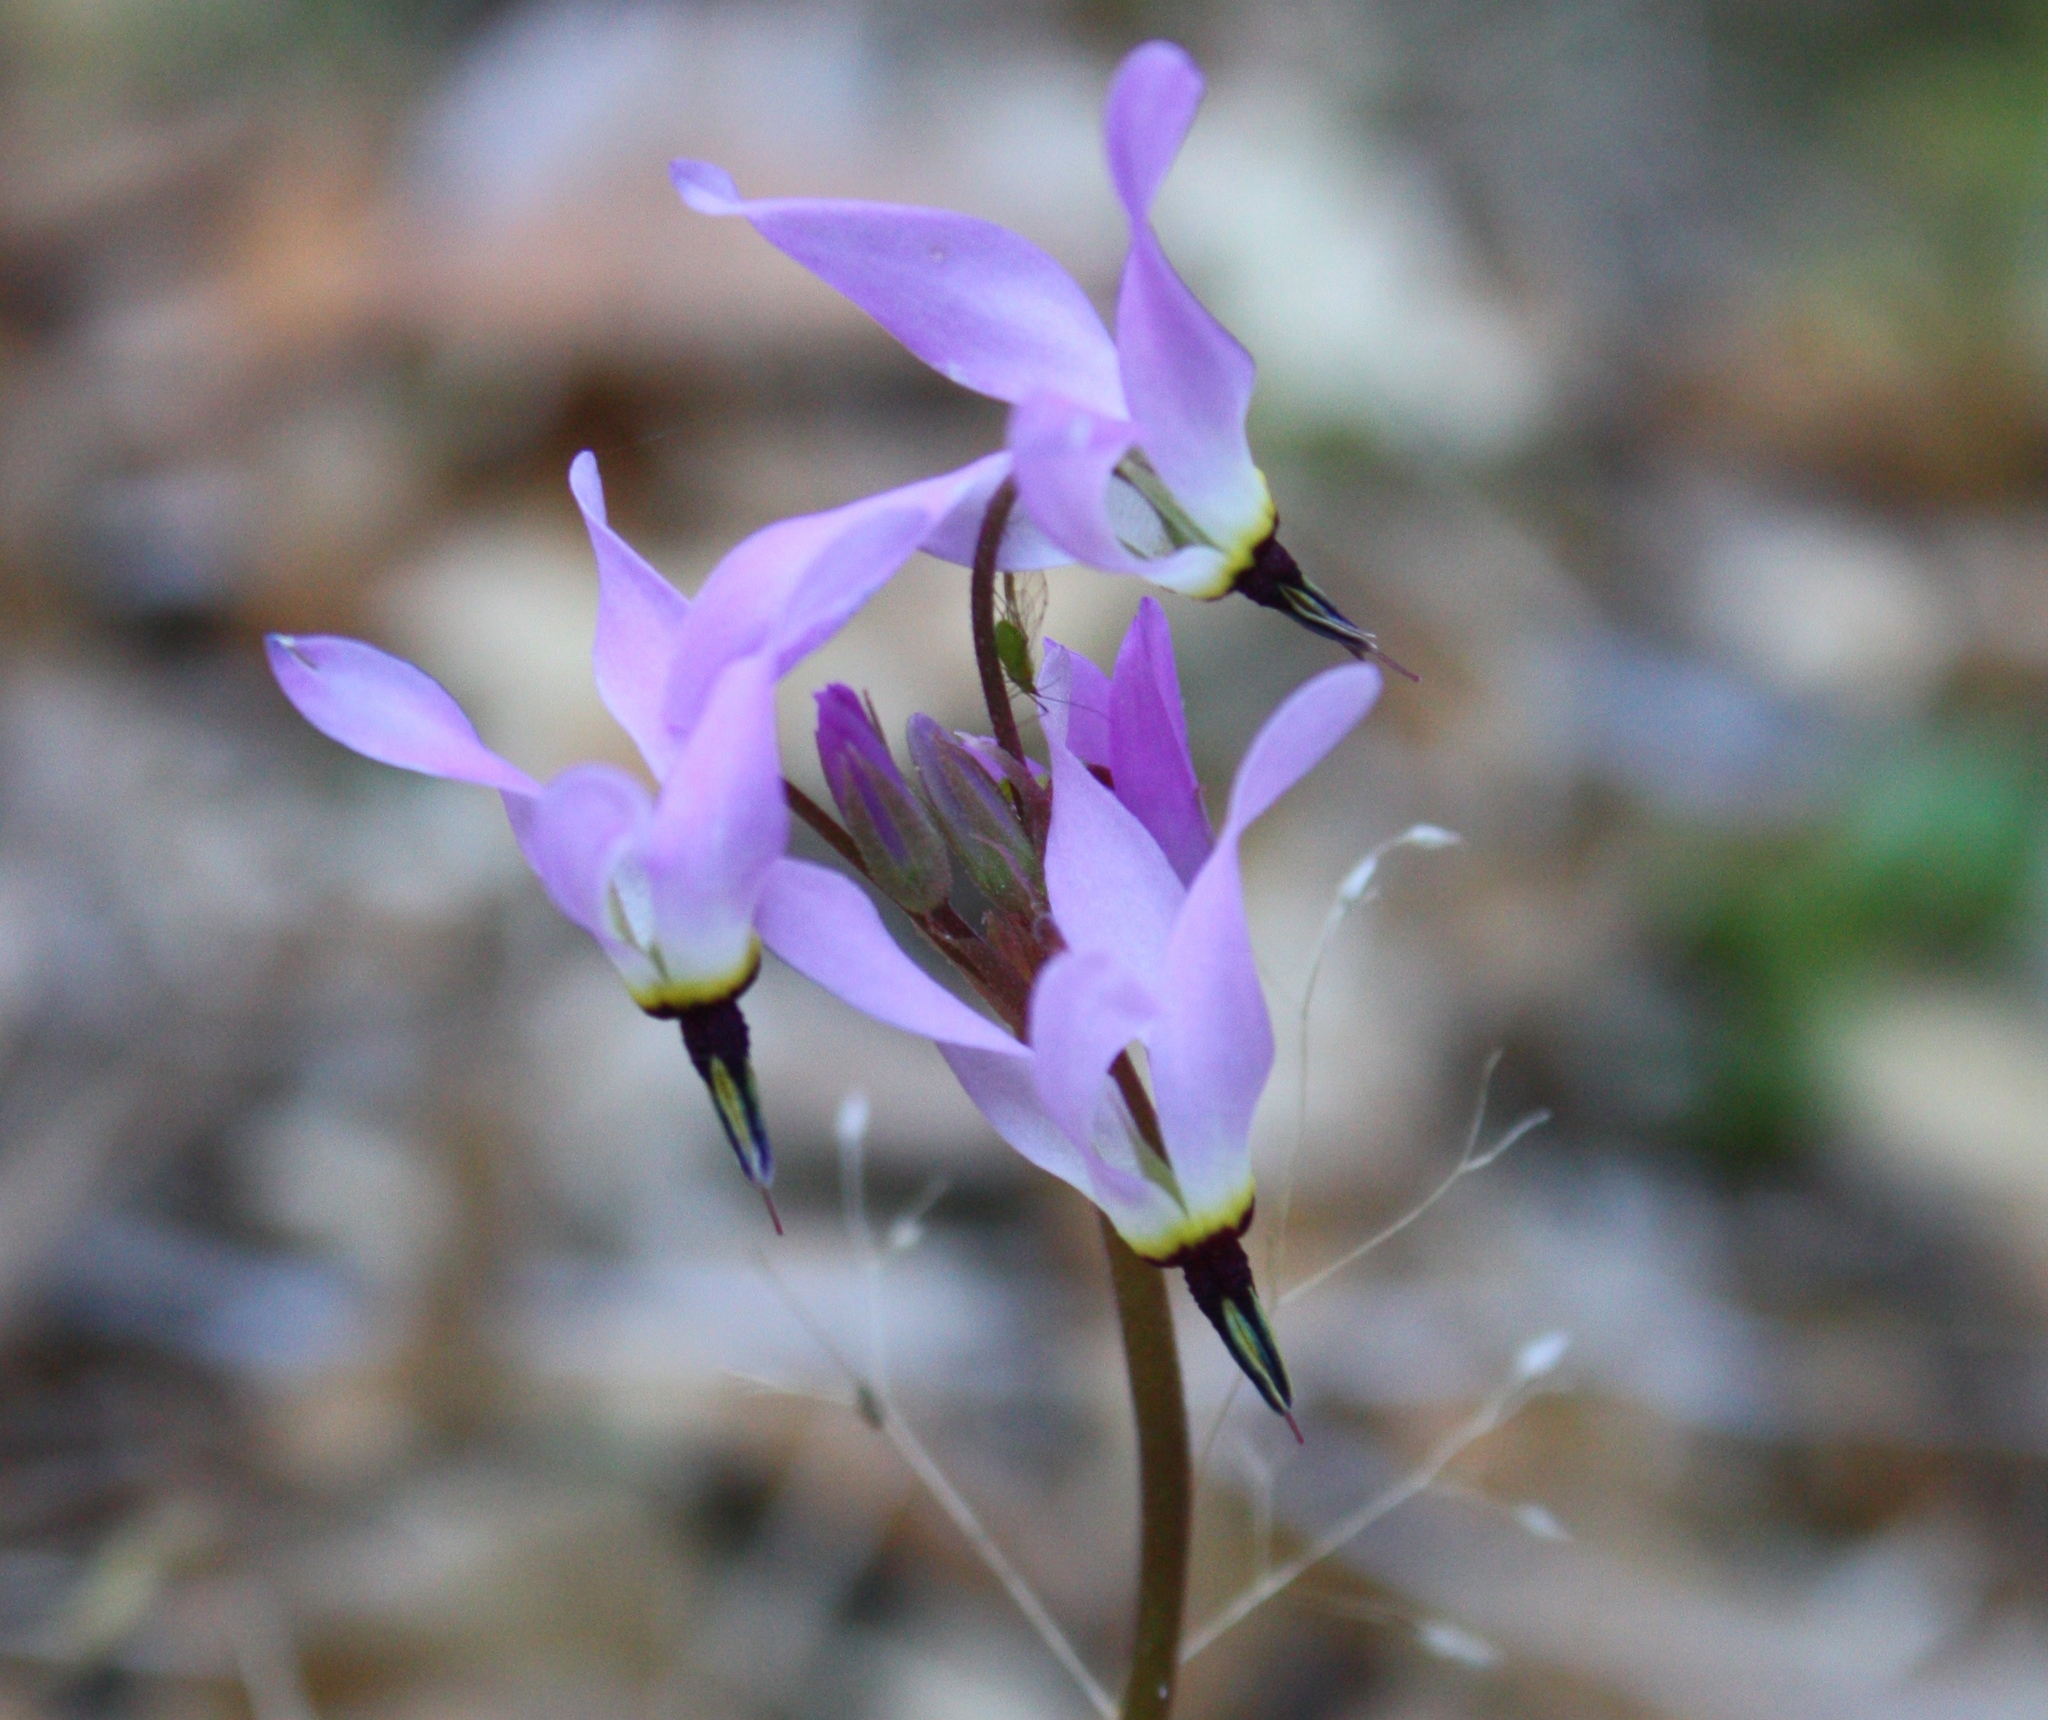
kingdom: Plantae
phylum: Tracheophyta
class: Magnoliopsida
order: Ericales
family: Primulaceae
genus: Dodecatheon
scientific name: Dodecatheon hendersonii
